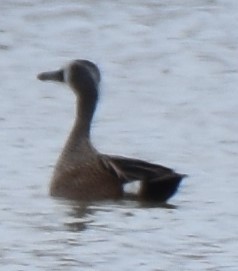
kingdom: Animalia
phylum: Chordata
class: Aves
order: Anseriformes
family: Anatidae
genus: Spatula
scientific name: Spatula discors
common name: Blue-winged teal
